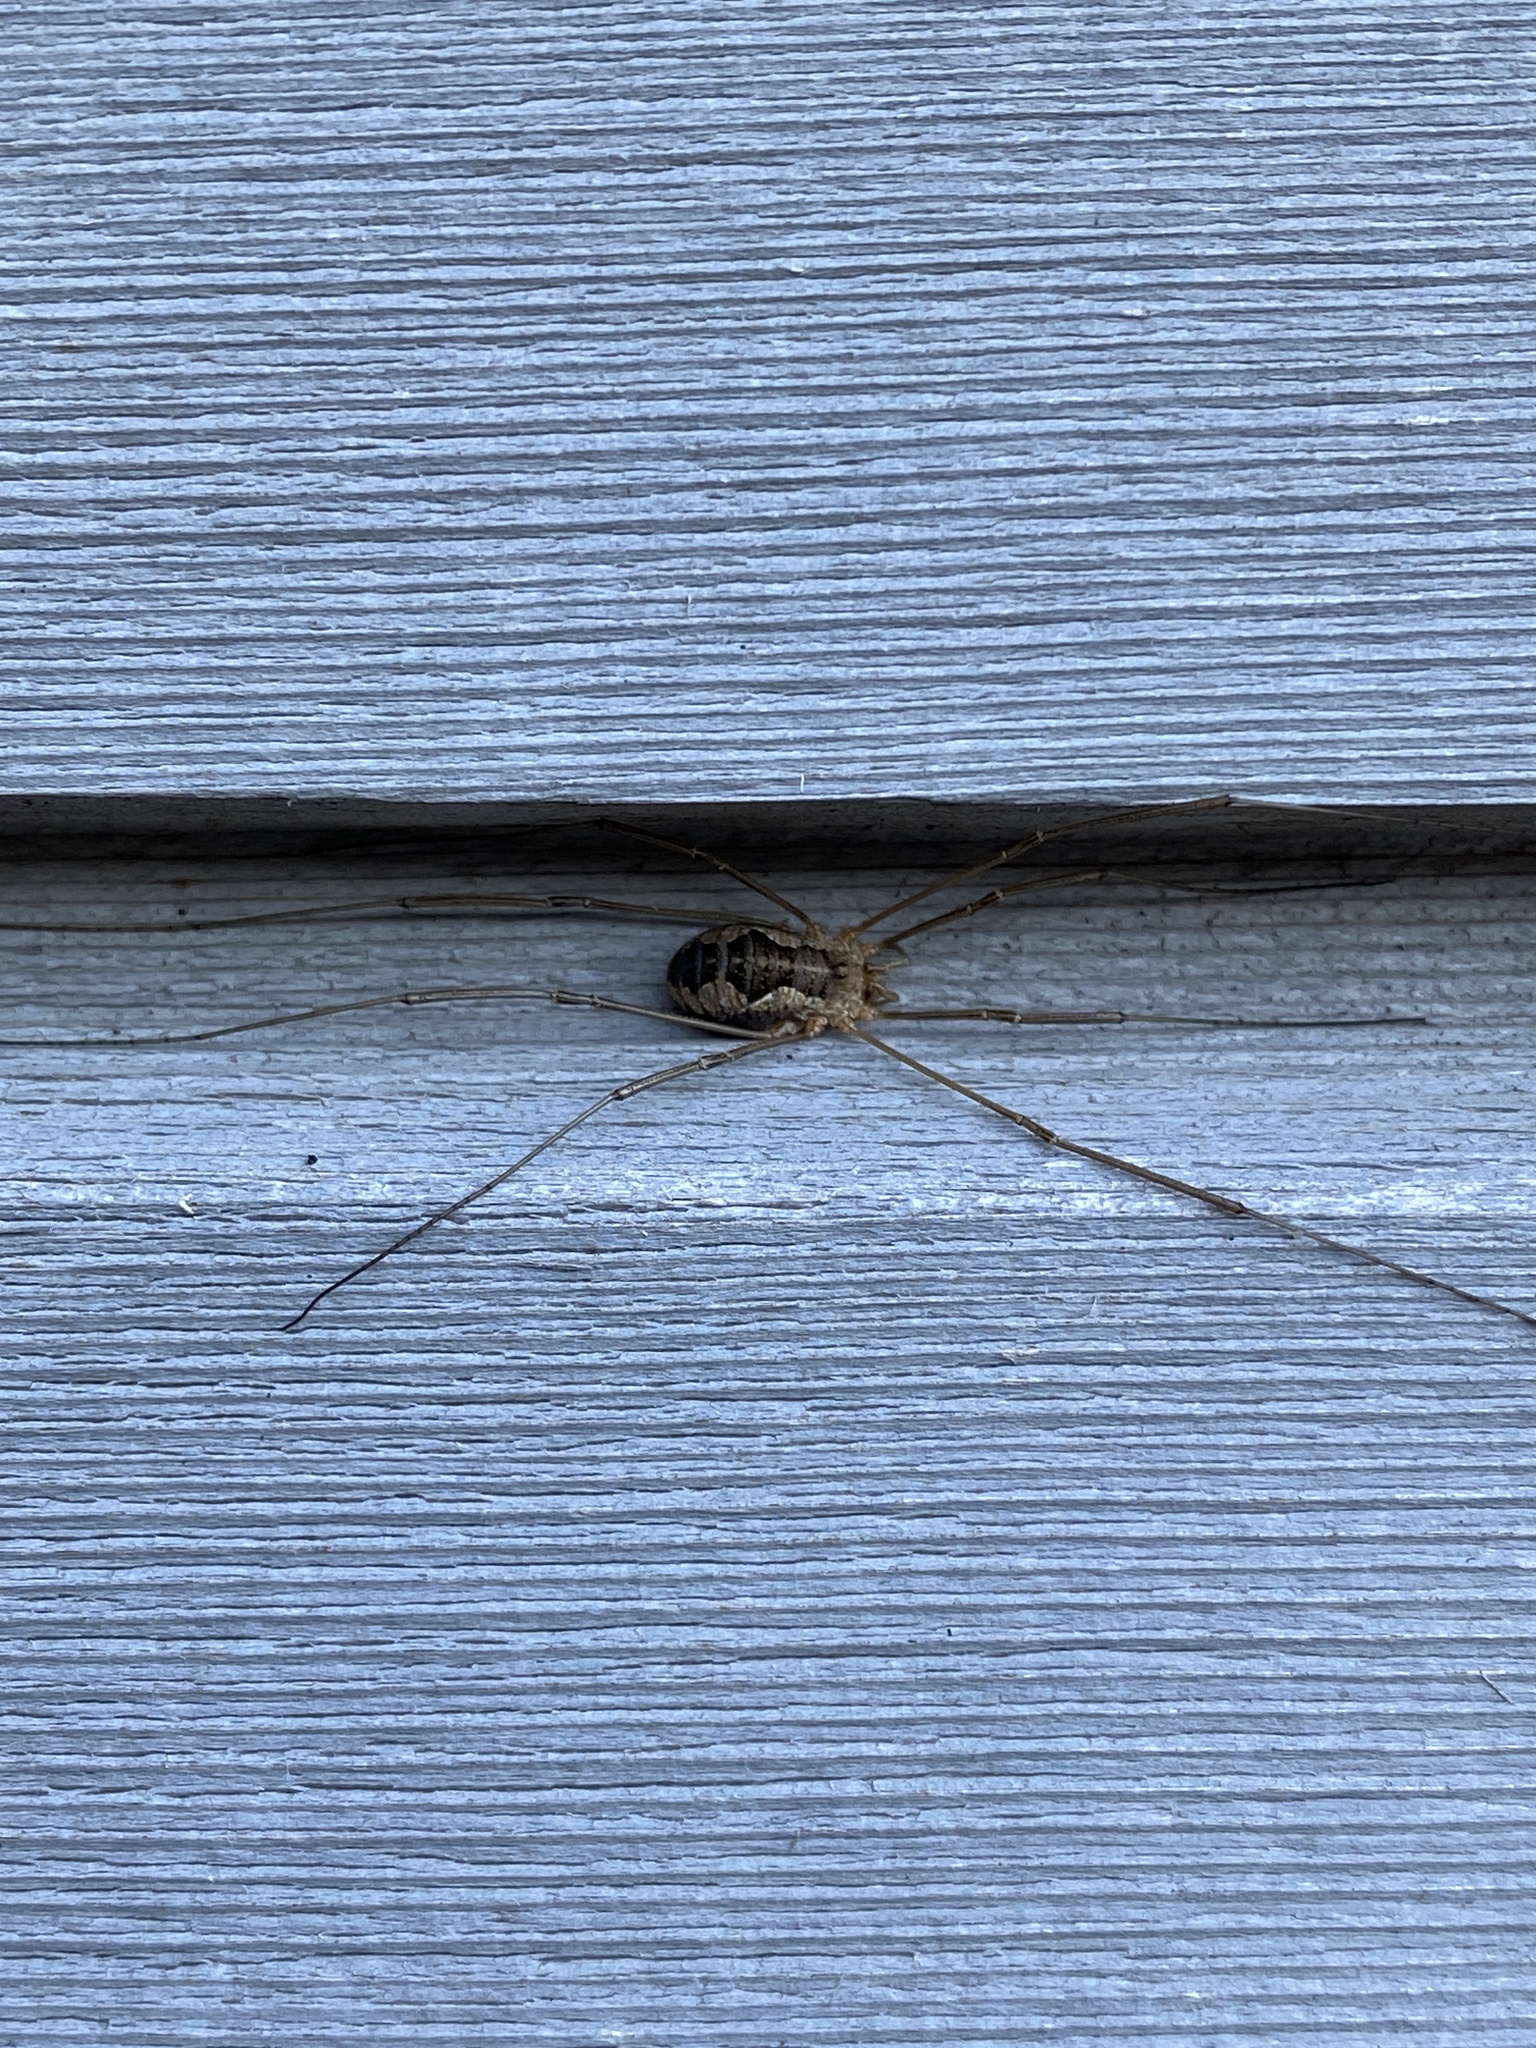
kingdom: Animalia
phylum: Arthropoda
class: Arachnida
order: Opiliones
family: Phalangiidae
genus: Phalangium
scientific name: Phalangium opilio
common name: Daddy longleg
